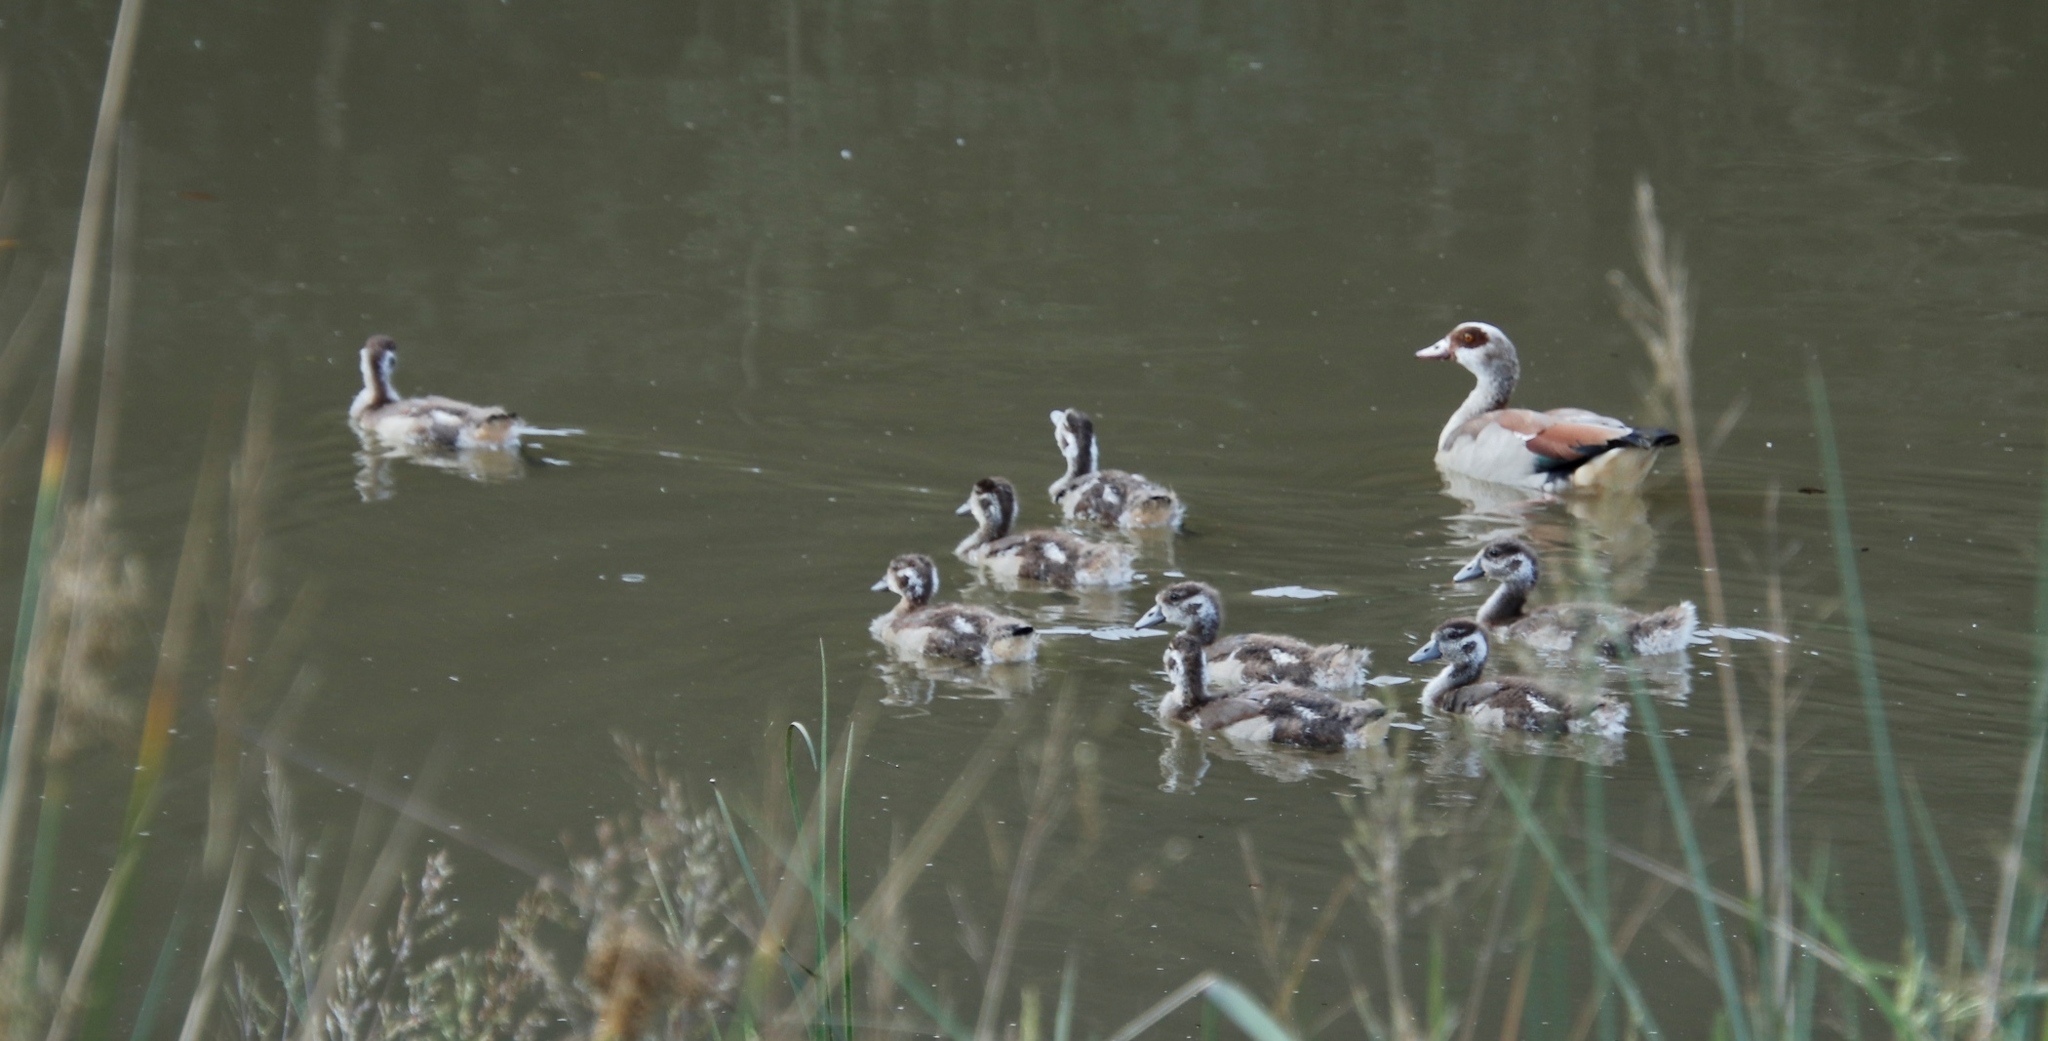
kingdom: Animalia
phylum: Chordata
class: Aves
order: Anseriformes
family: Anatidae
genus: Alopochen
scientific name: Alopochen aegyptiaca
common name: Egyptian goose
